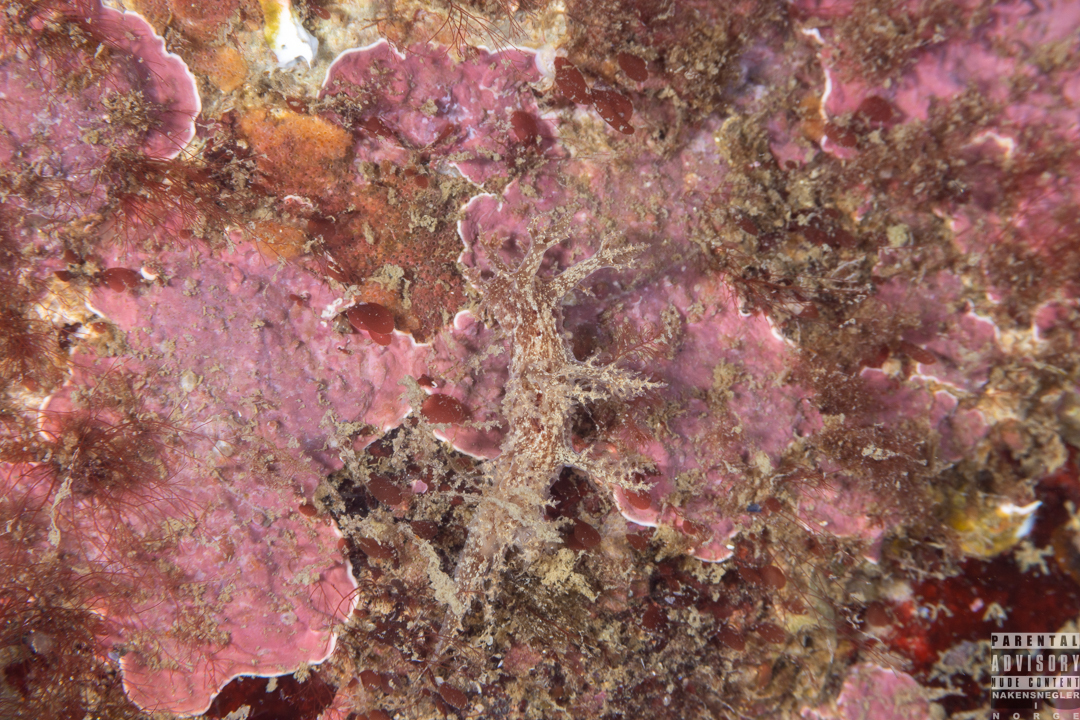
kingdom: Animalia
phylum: Mollusca
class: Gastropoda
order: Nudibranchia
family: Dendronotidae
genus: Dendronotus
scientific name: Dendronotus frondosus
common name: Bushy-backed nudibranch
